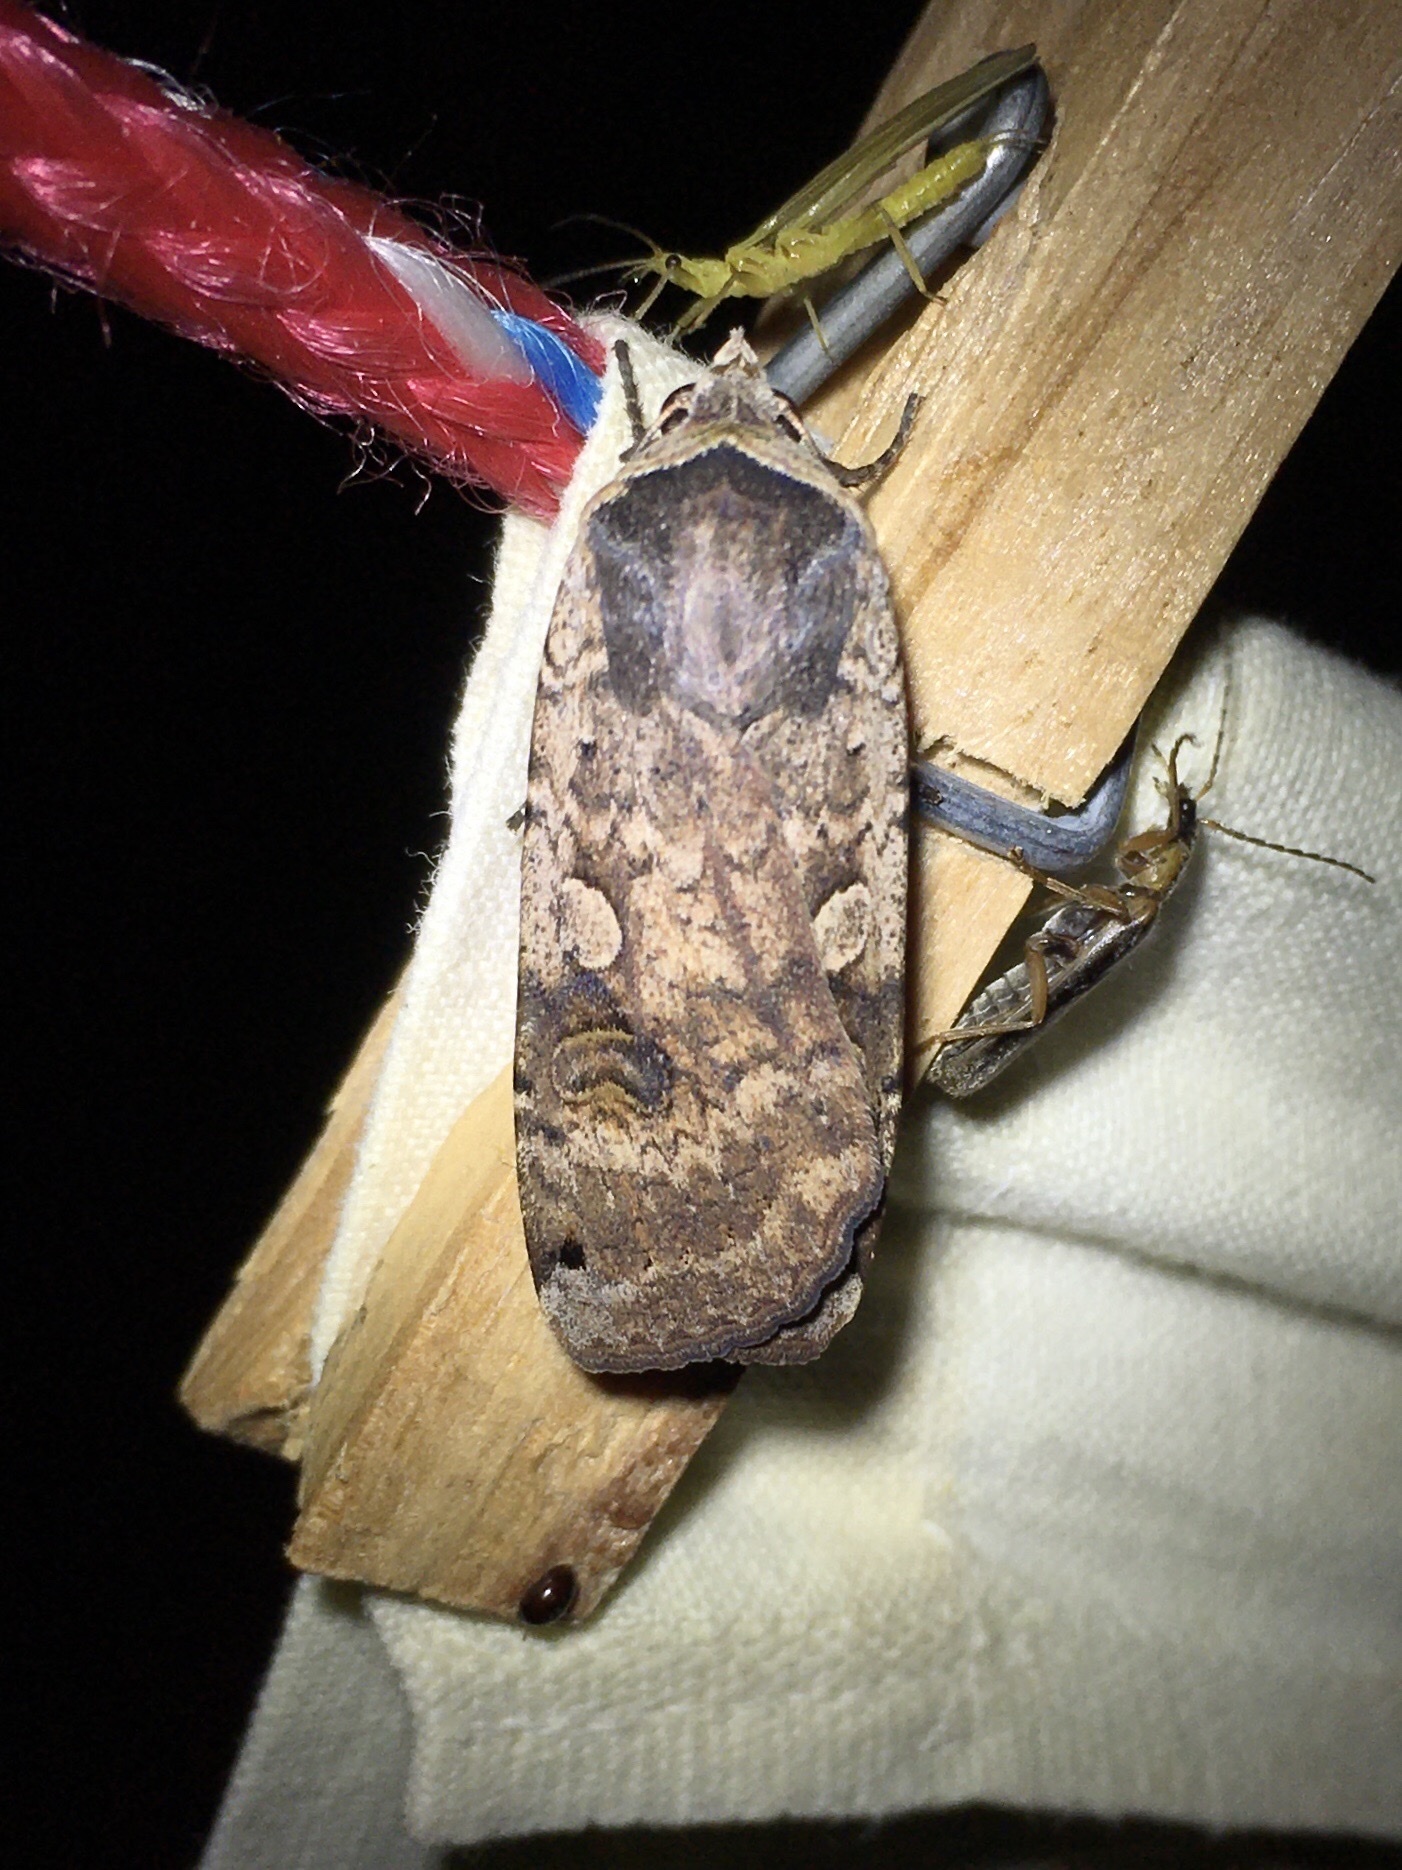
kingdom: Animalia
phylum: Arthropoda
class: Insecta
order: Lepidoptera
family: Noctuidae
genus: Noctua
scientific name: Noctua pronuba
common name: Large yellow underwing
